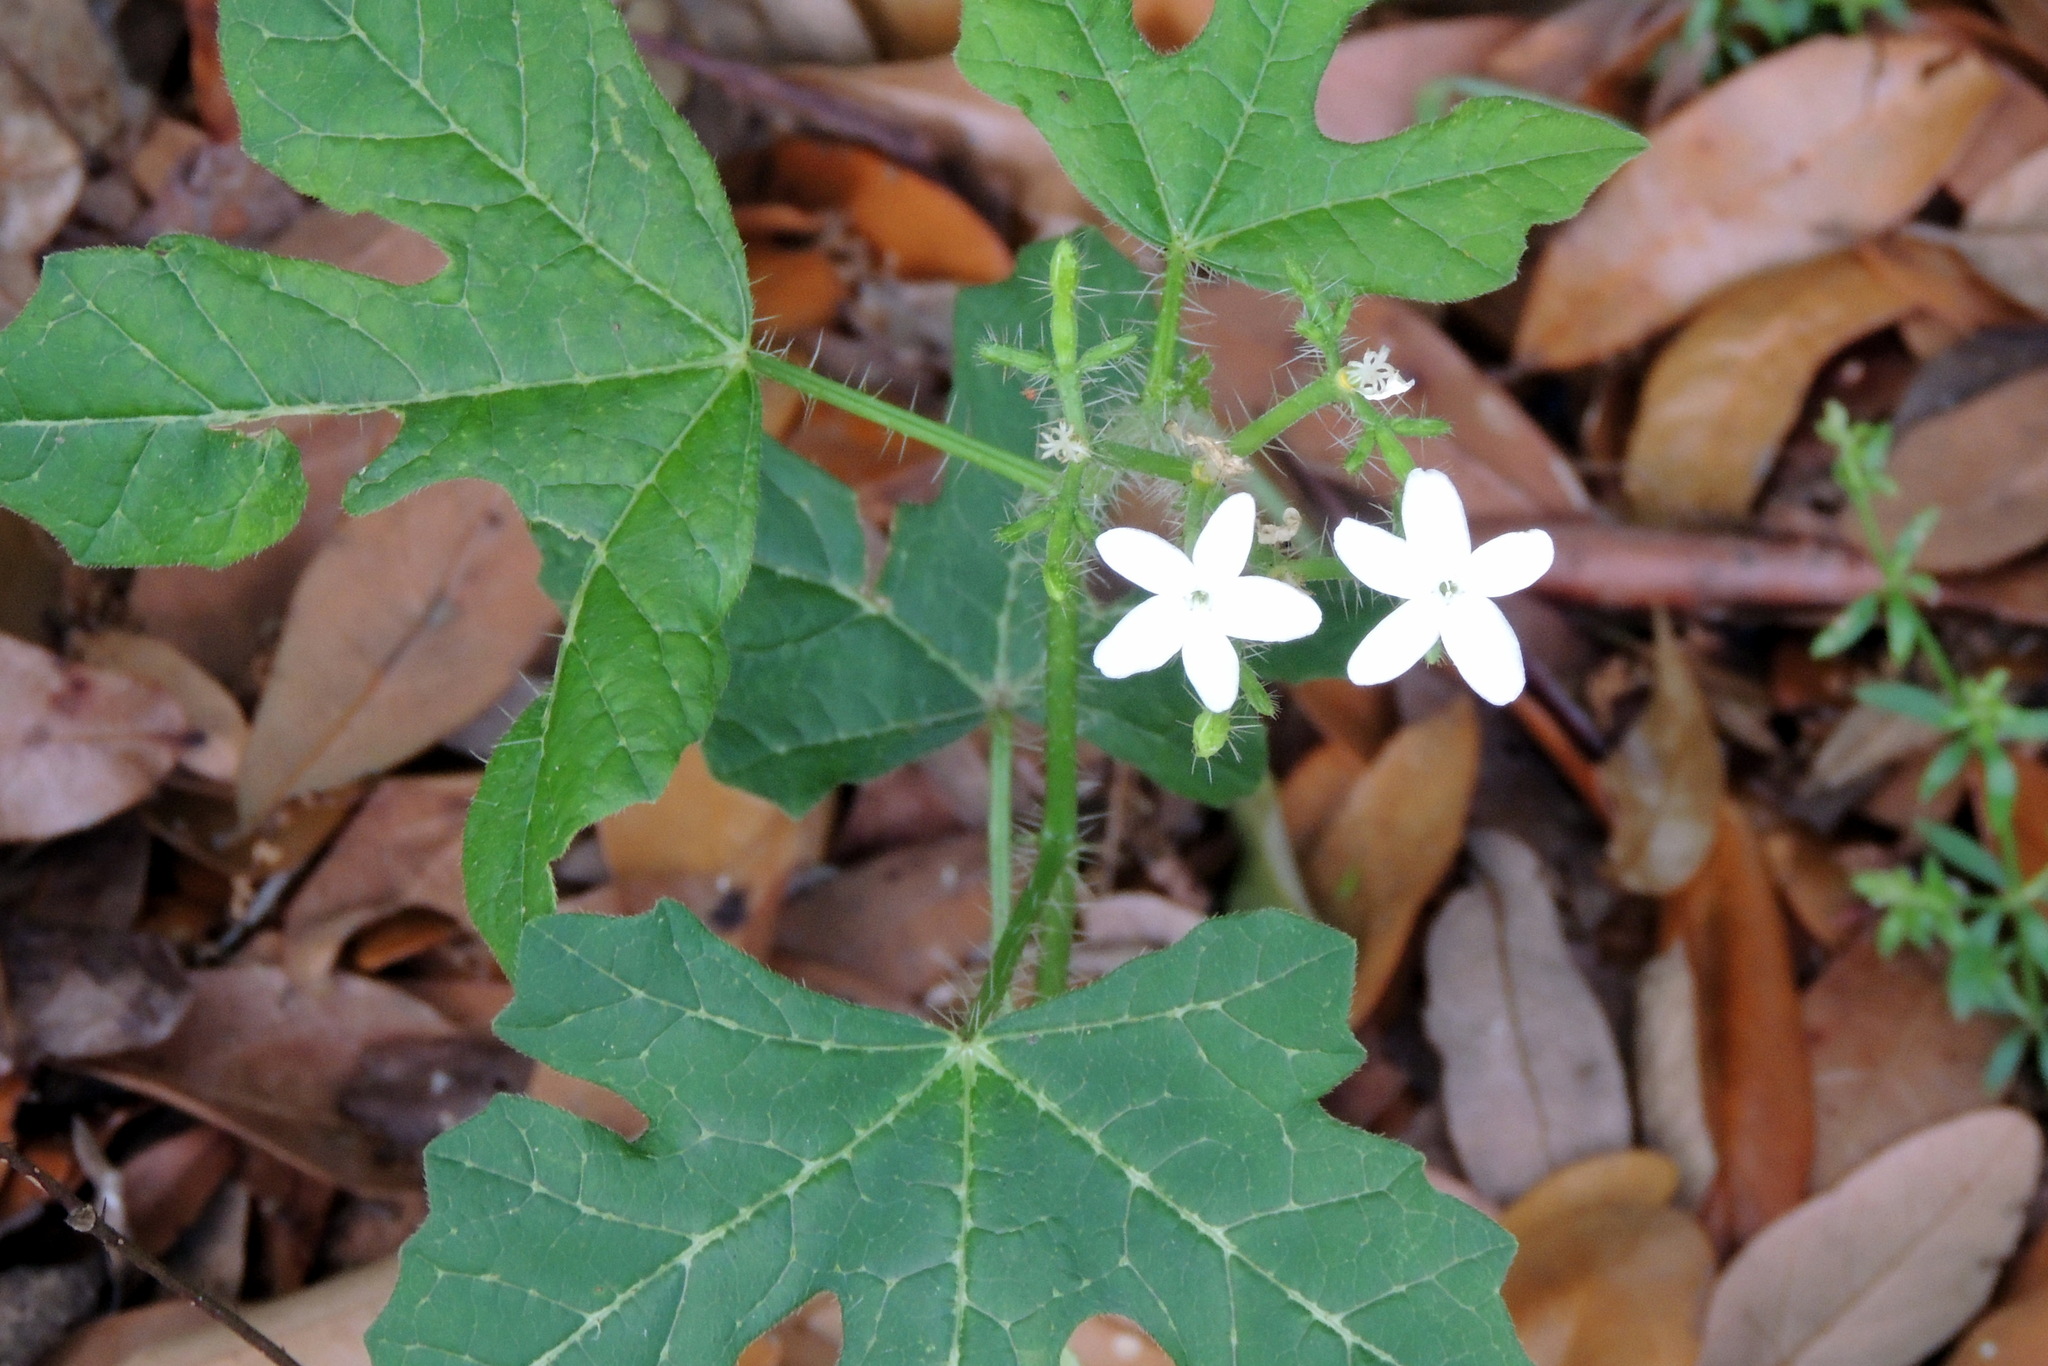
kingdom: Plantae
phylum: Tracheophyta
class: Magnoliopsida
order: Malpighiales
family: Euphorbiaceae
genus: Cnidoscolus
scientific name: Cnidoscolus stimulosus
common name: Bull-nettle
